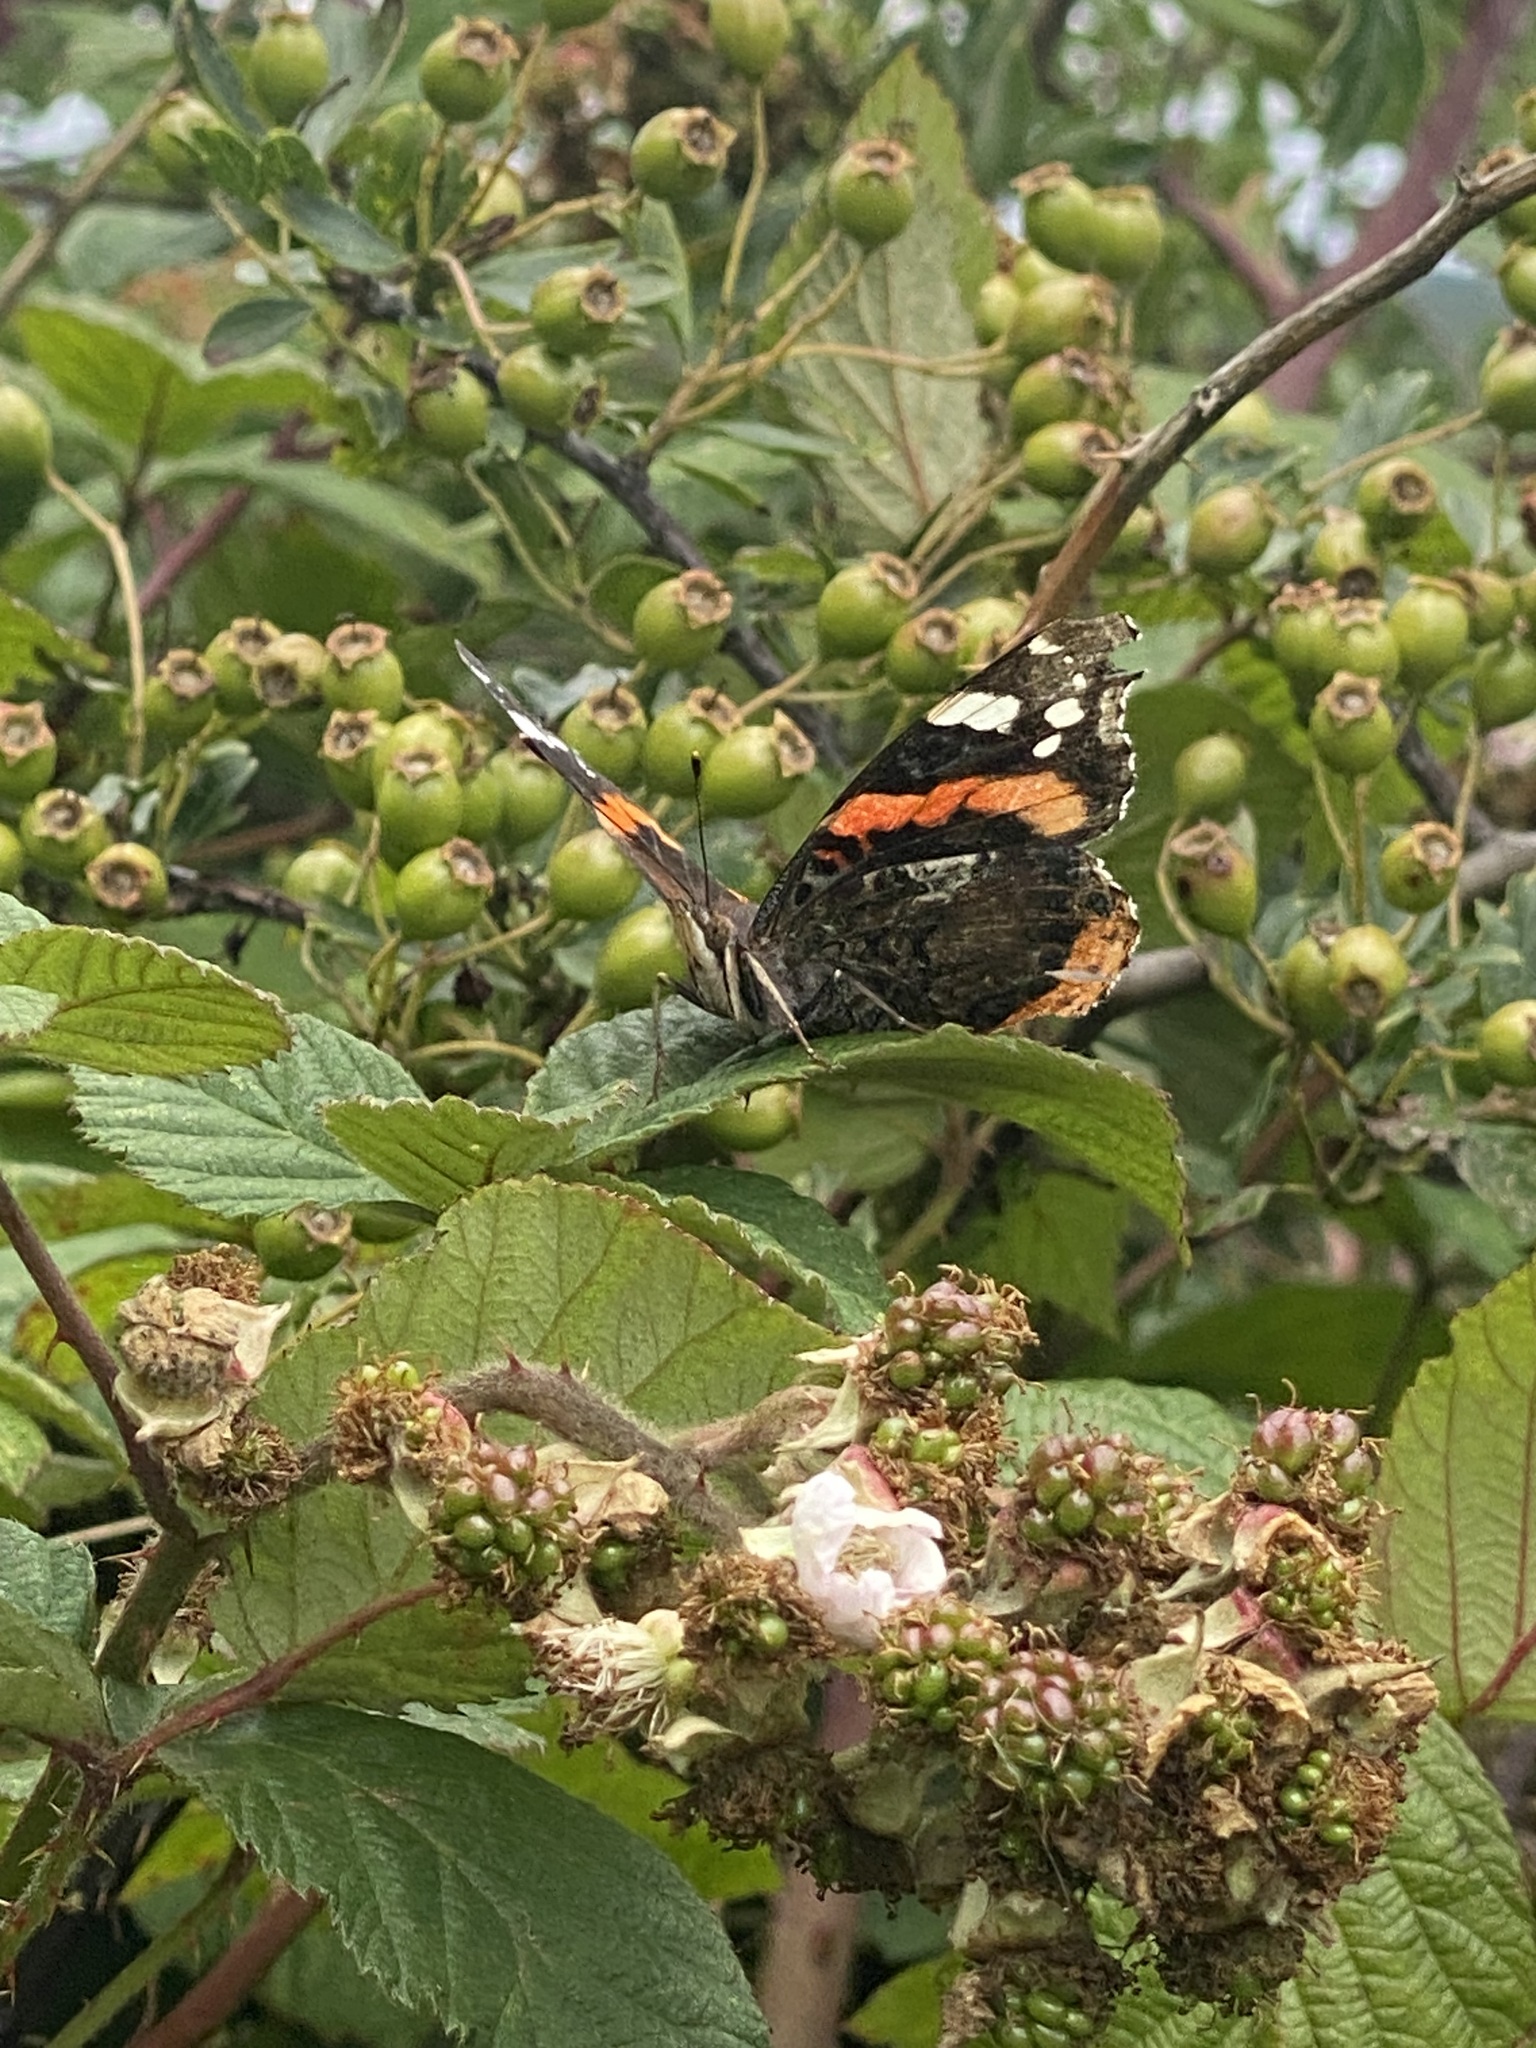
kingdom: Animalia
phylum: Arthropoda
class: Insecta
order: Lepidoptera
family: Nymphalidae
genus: Vanessa
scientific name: Vanessa atalanta
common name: Red admiral
